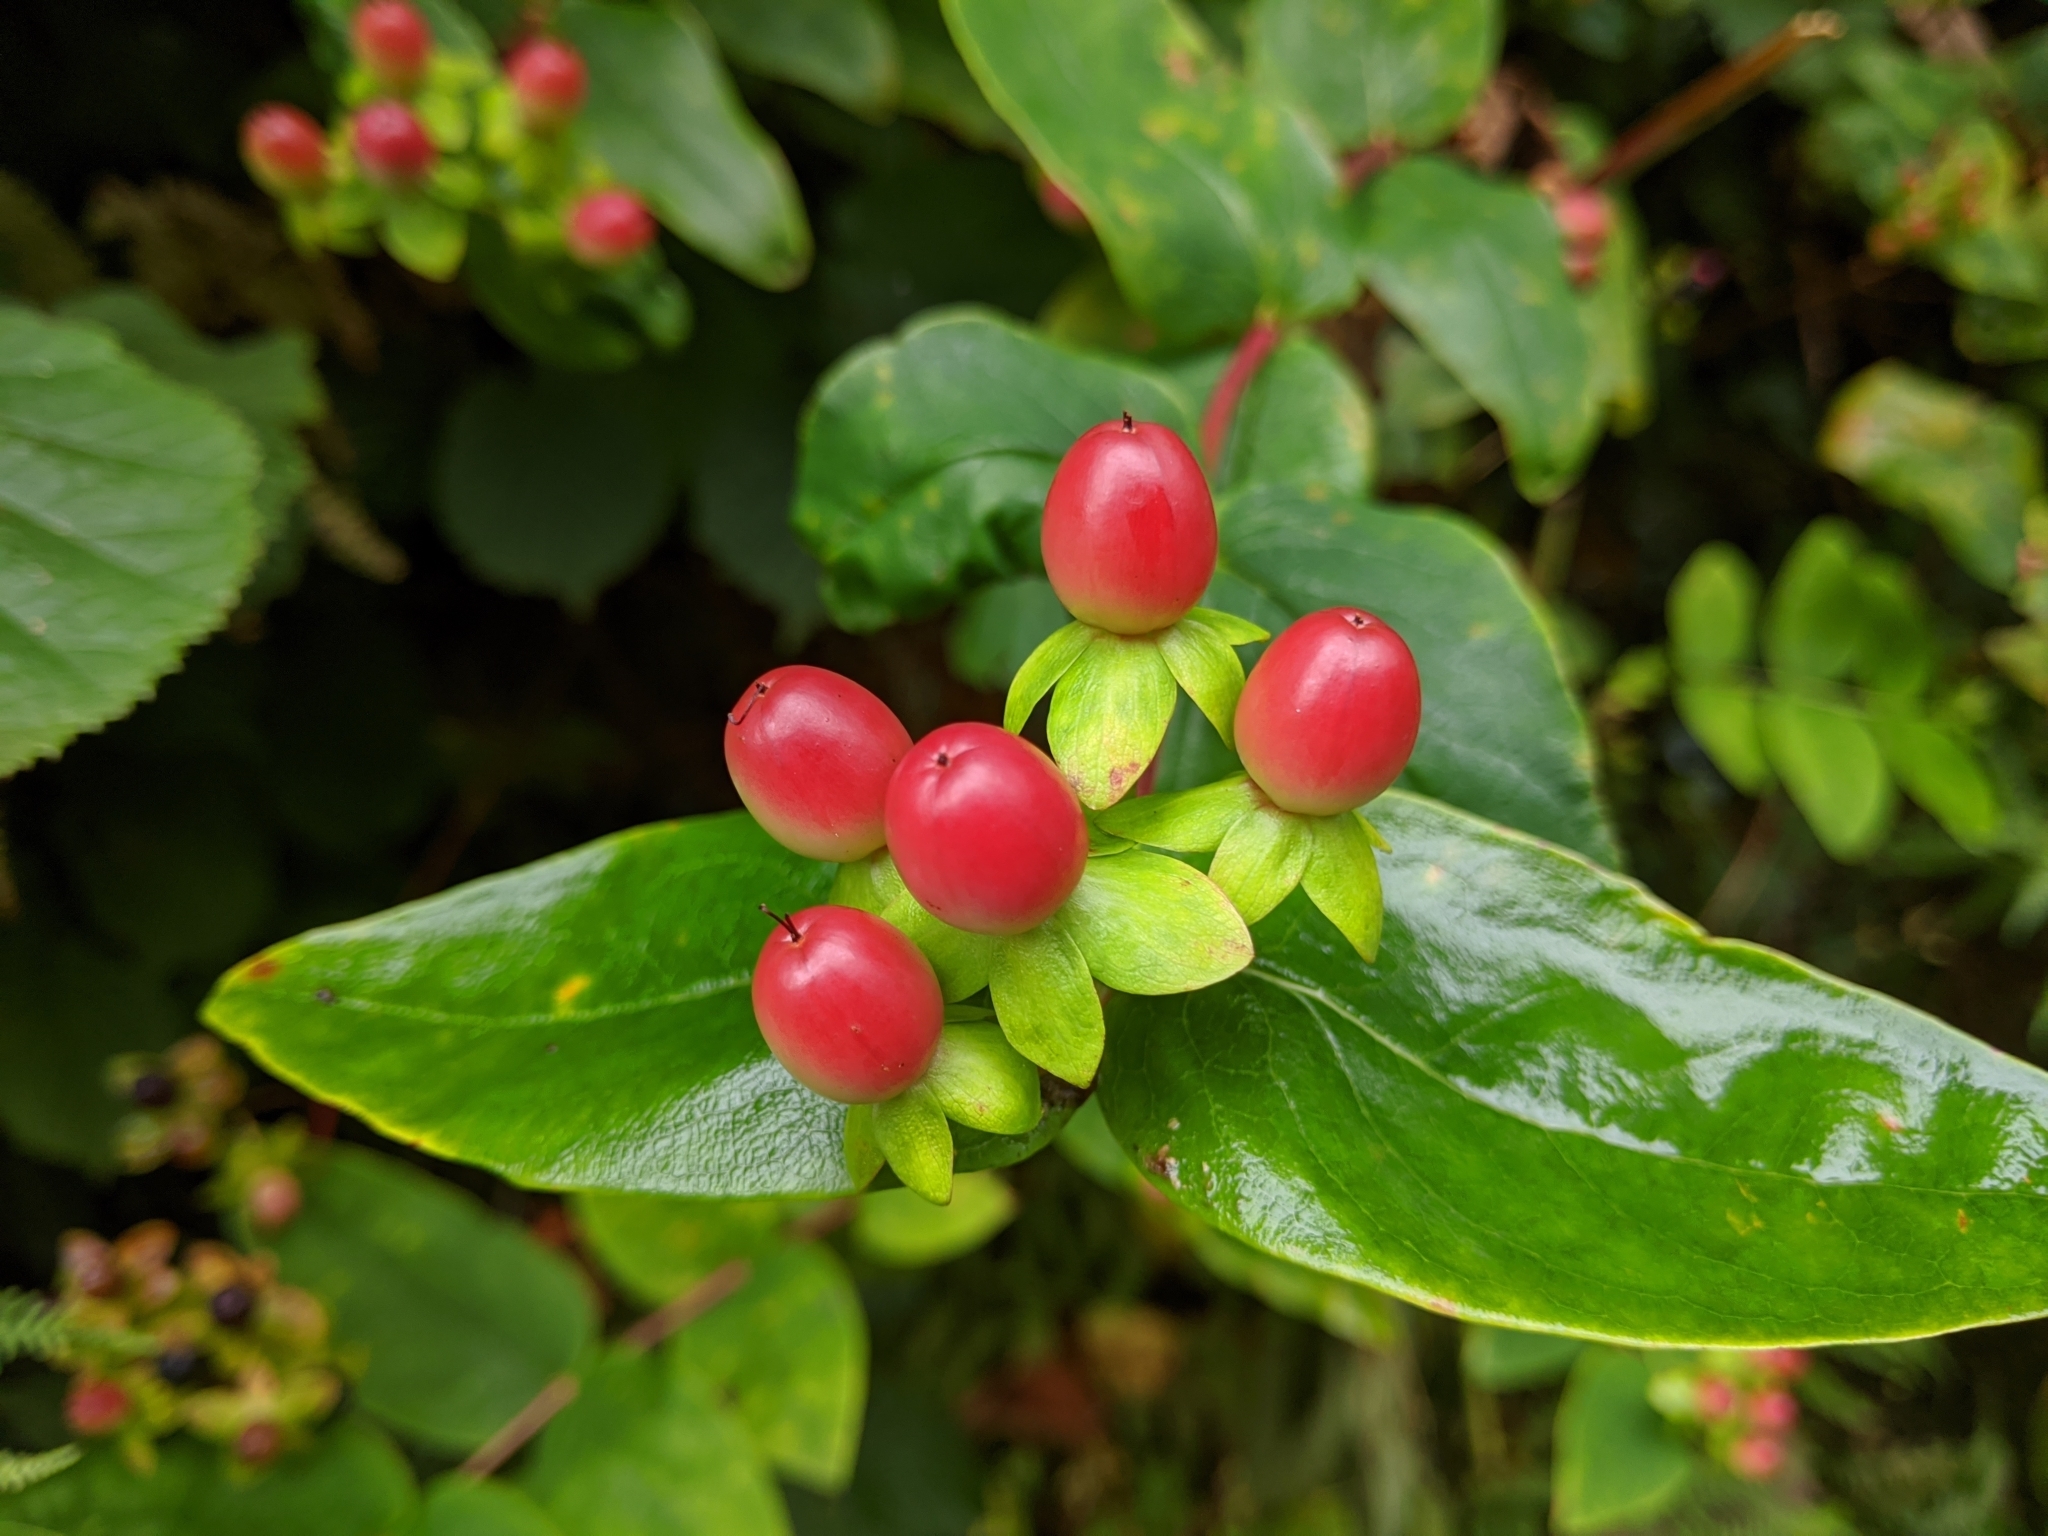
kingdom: Plantae
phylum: Tracheophyta
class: Magnoliopsida
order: Malpighiales
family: Hypericaceae
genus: Hypericum
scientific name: Hypericum androsaemum
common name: Sweet-amber
